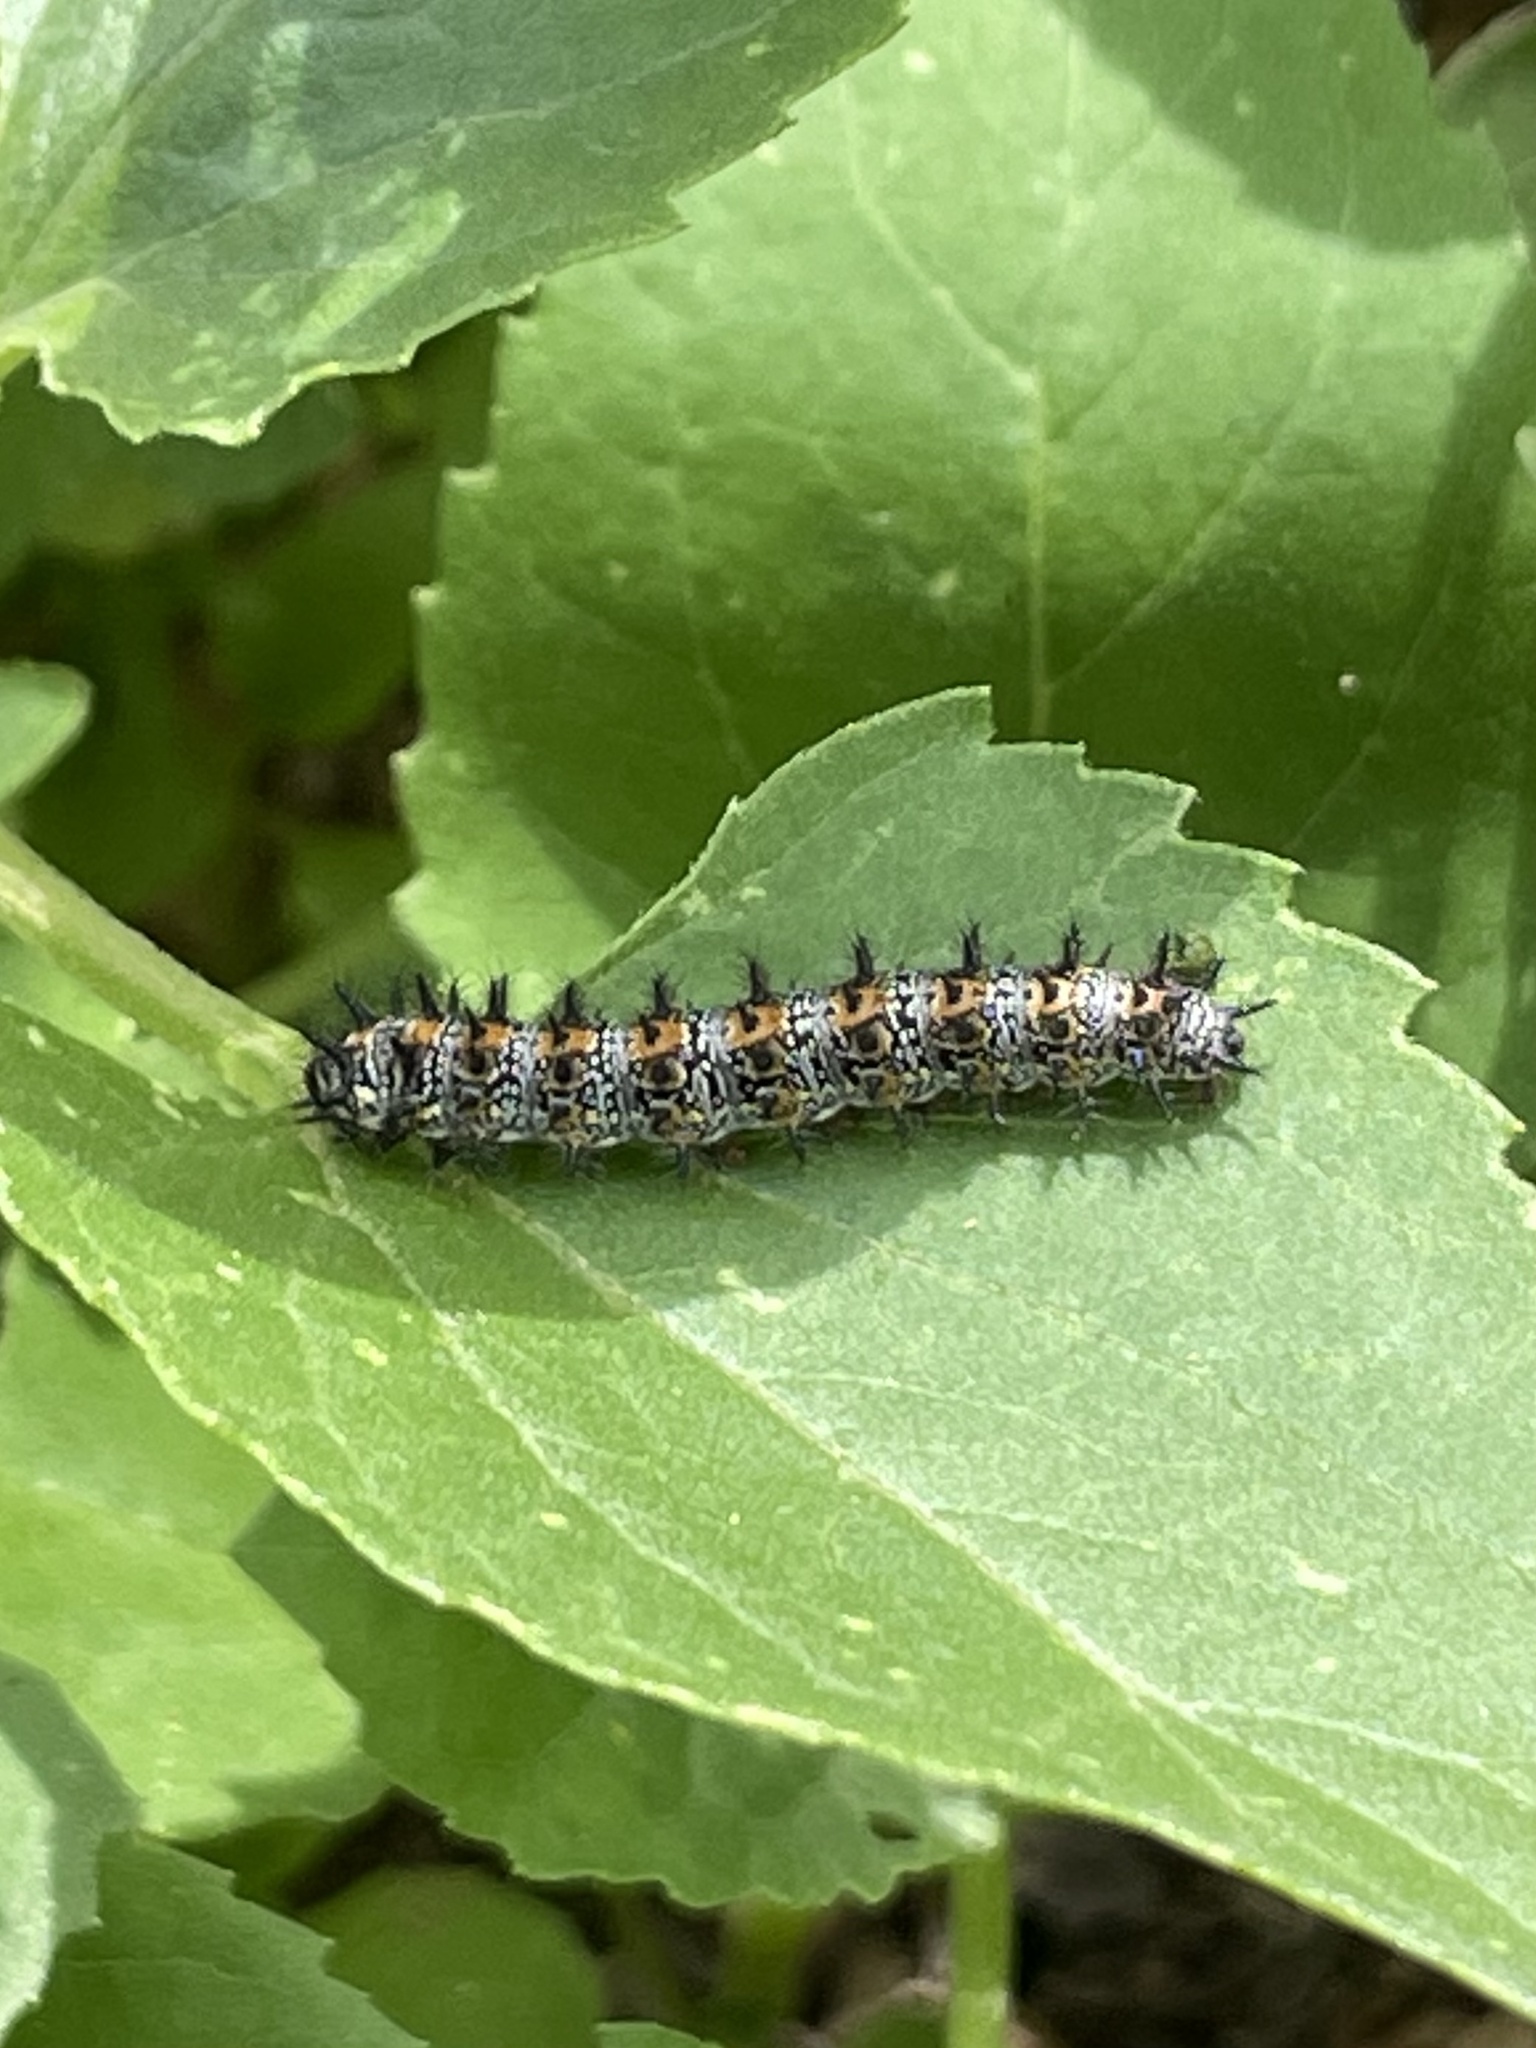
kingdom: Animalia
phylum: Arthropoda
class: Insecta
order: Lepidoptera
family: Nymphalidae
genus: Chlosyne
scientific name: Chlosyne lacinia
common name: Bordered patch
